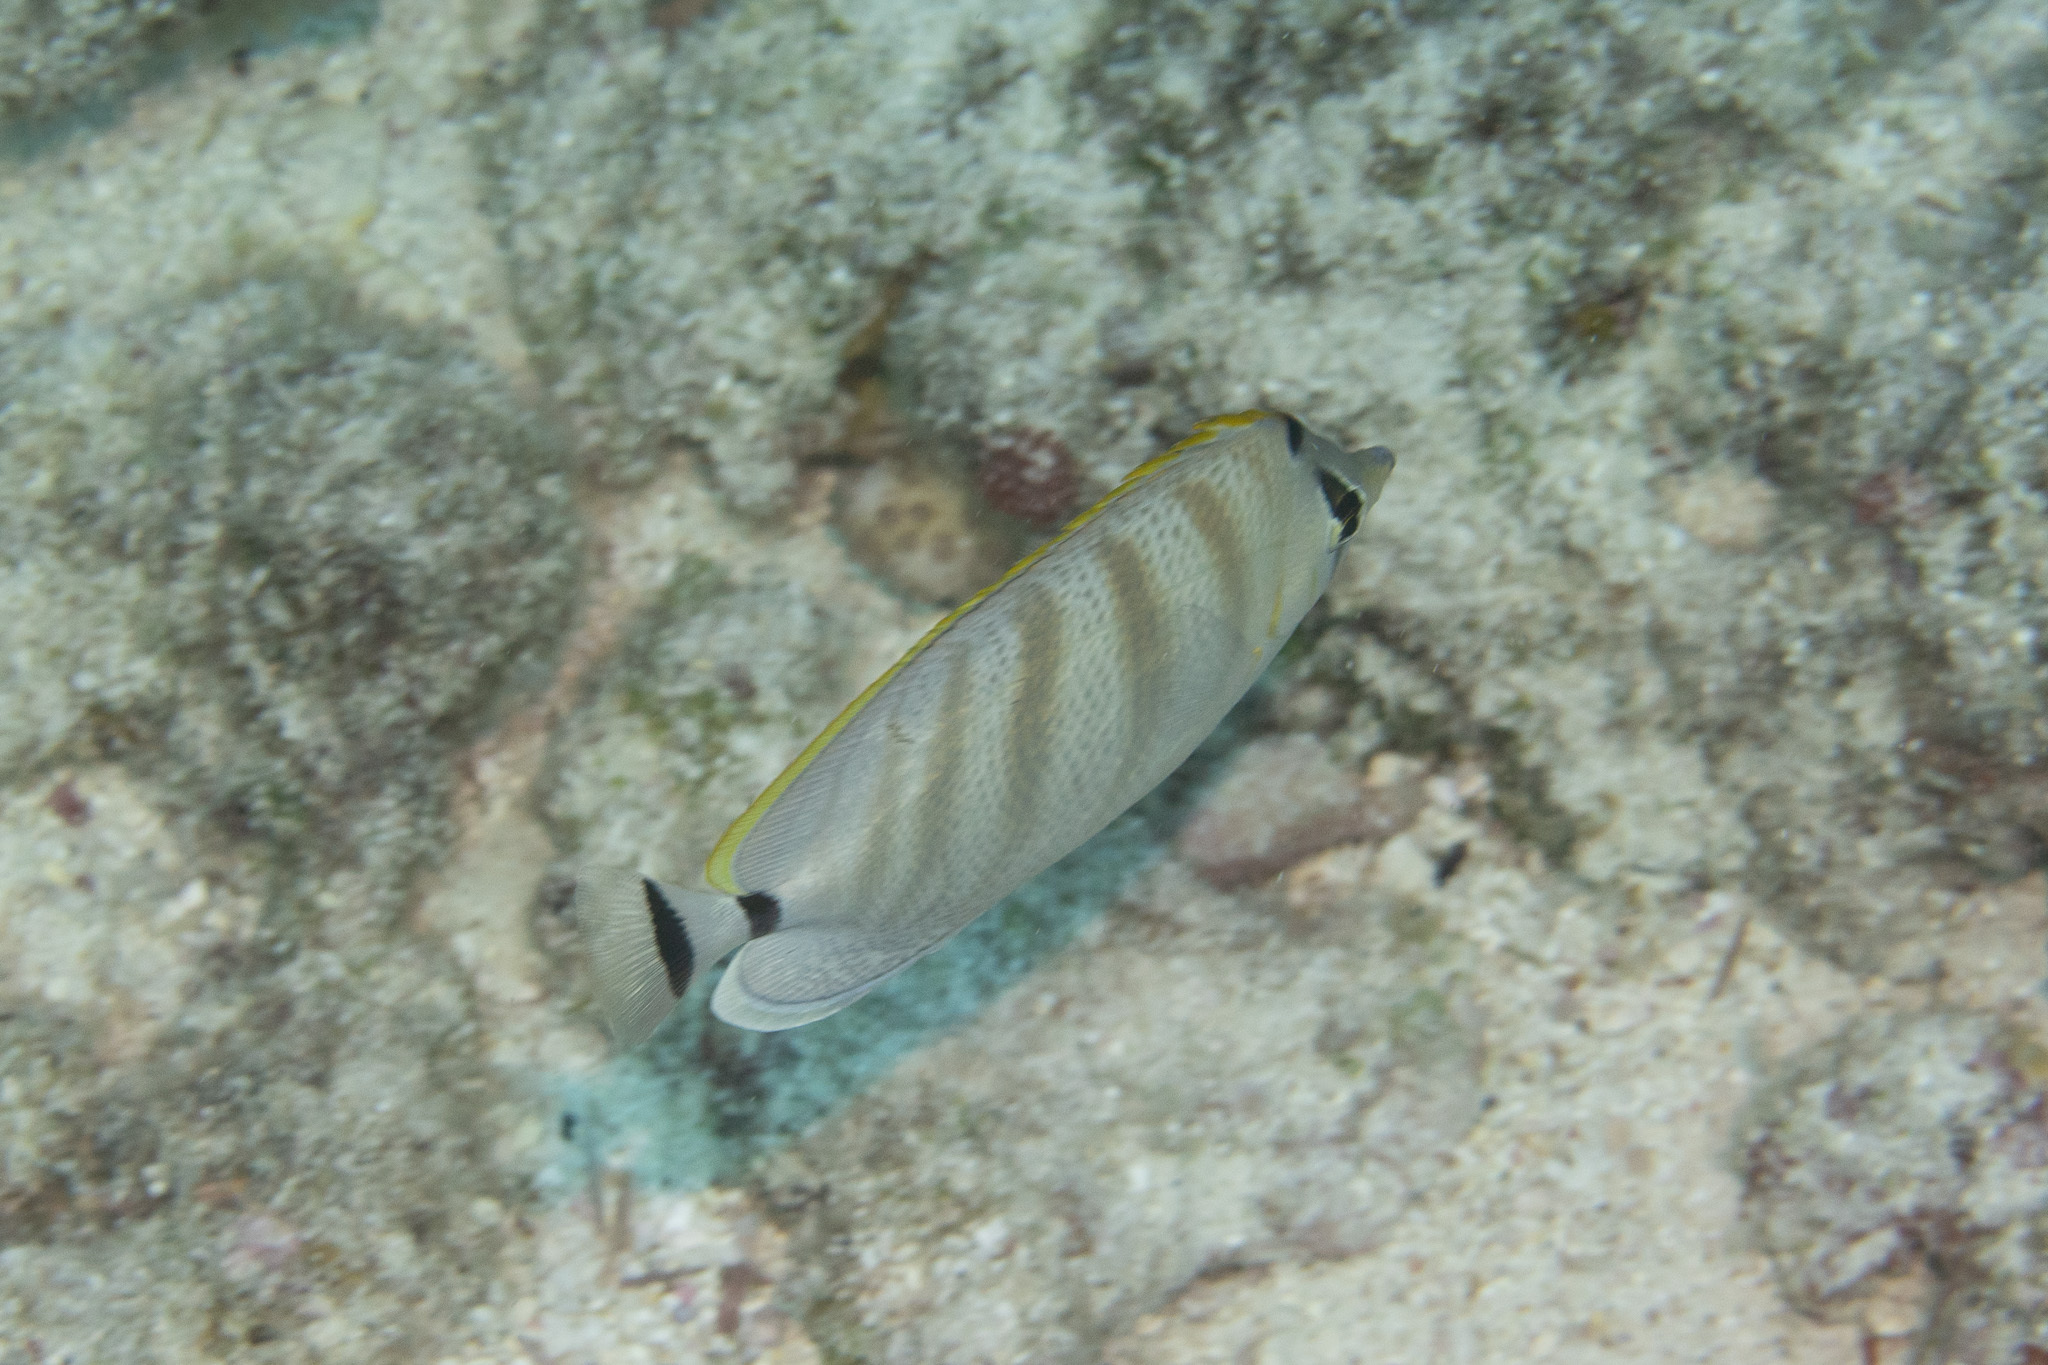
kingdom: Animalia
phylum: Chordata
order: Perciformes
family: Chaetodontidae
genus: Chaetodon
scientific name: Chaetodon multicinctus
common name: Multiband butterflyfish
